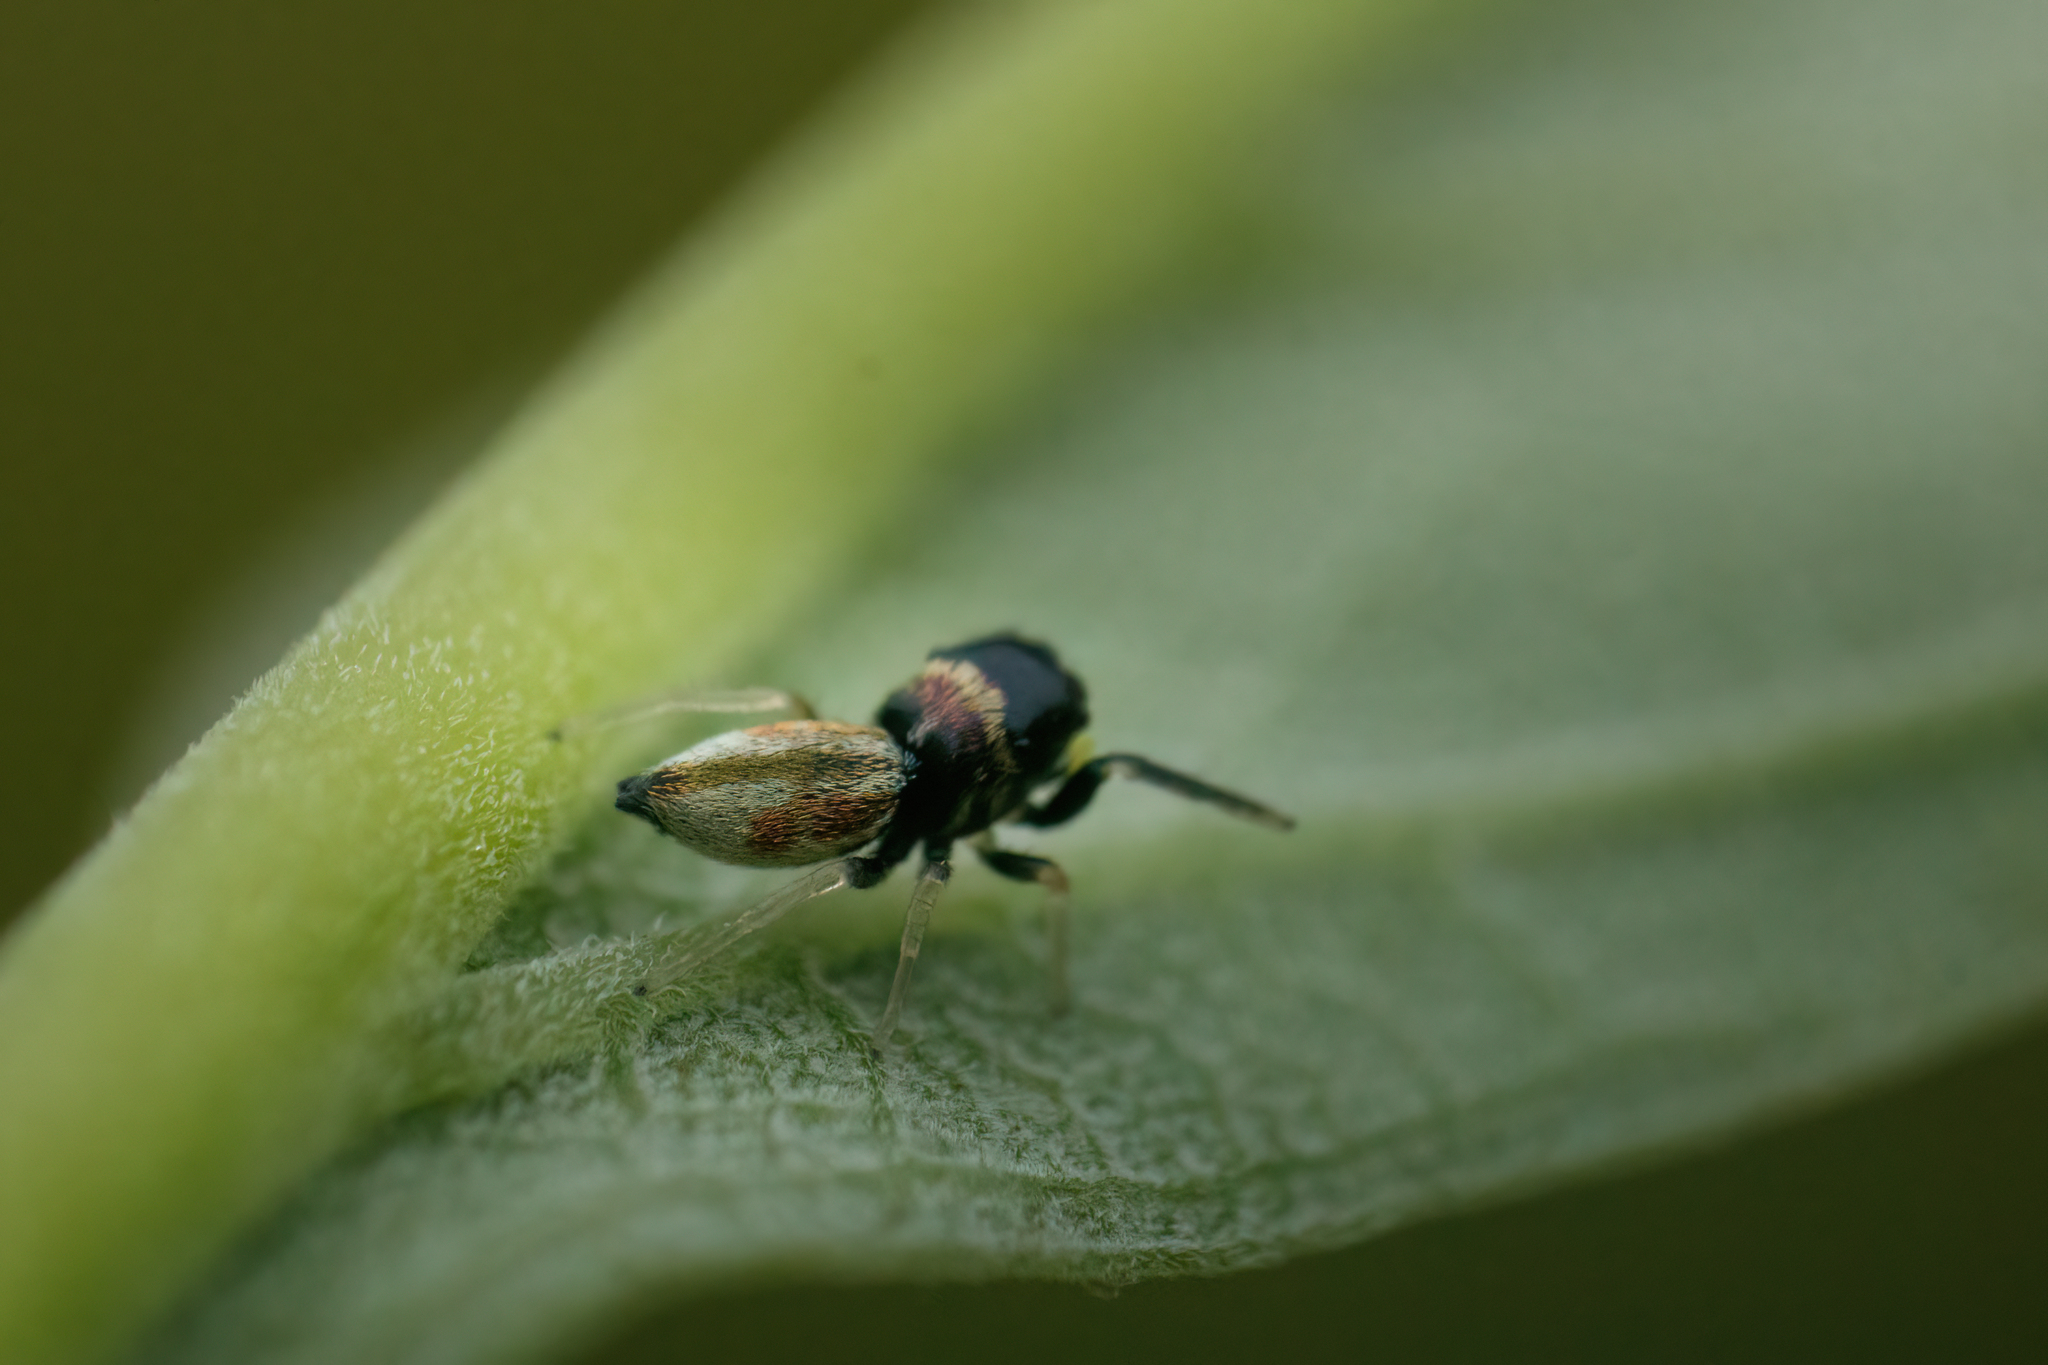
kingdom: Animalia
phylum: Arthropoda
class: Arachnida
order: Araneae
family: Salticidae
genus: Madhyattus
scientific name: Madhyattus jabalpurensis
